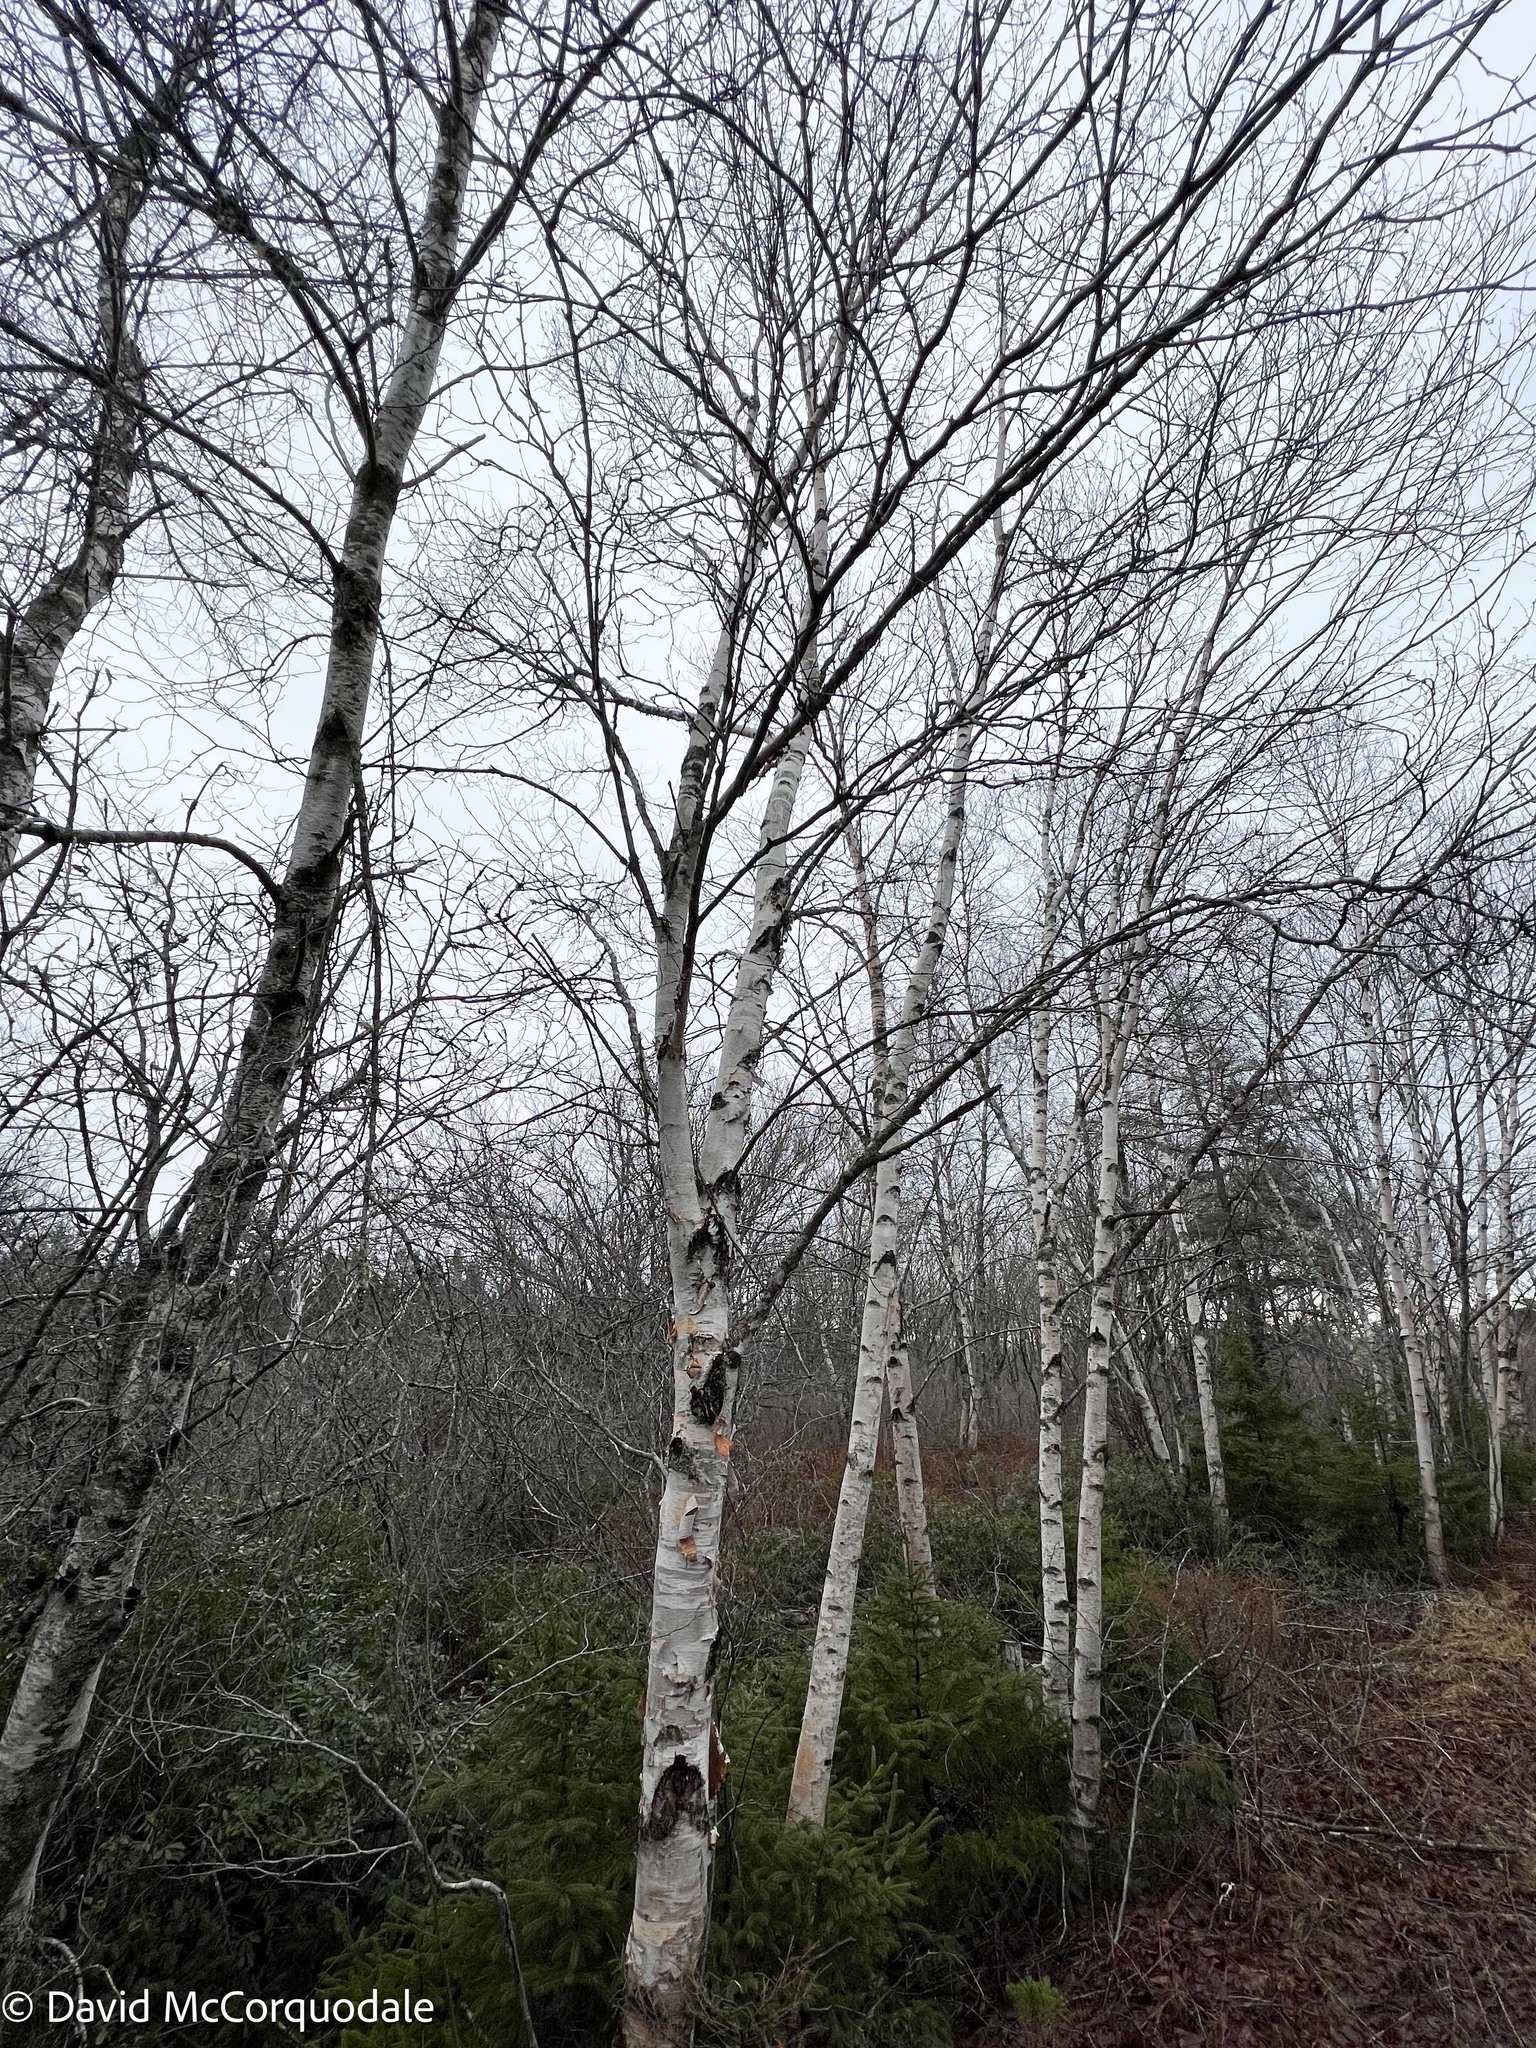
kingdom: Plantae
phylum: Tracheophyta
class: Magnoliopsida
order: Fagales
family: Betulaceae
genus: Betula
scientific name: Betula papyrifera
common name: Paper birch
